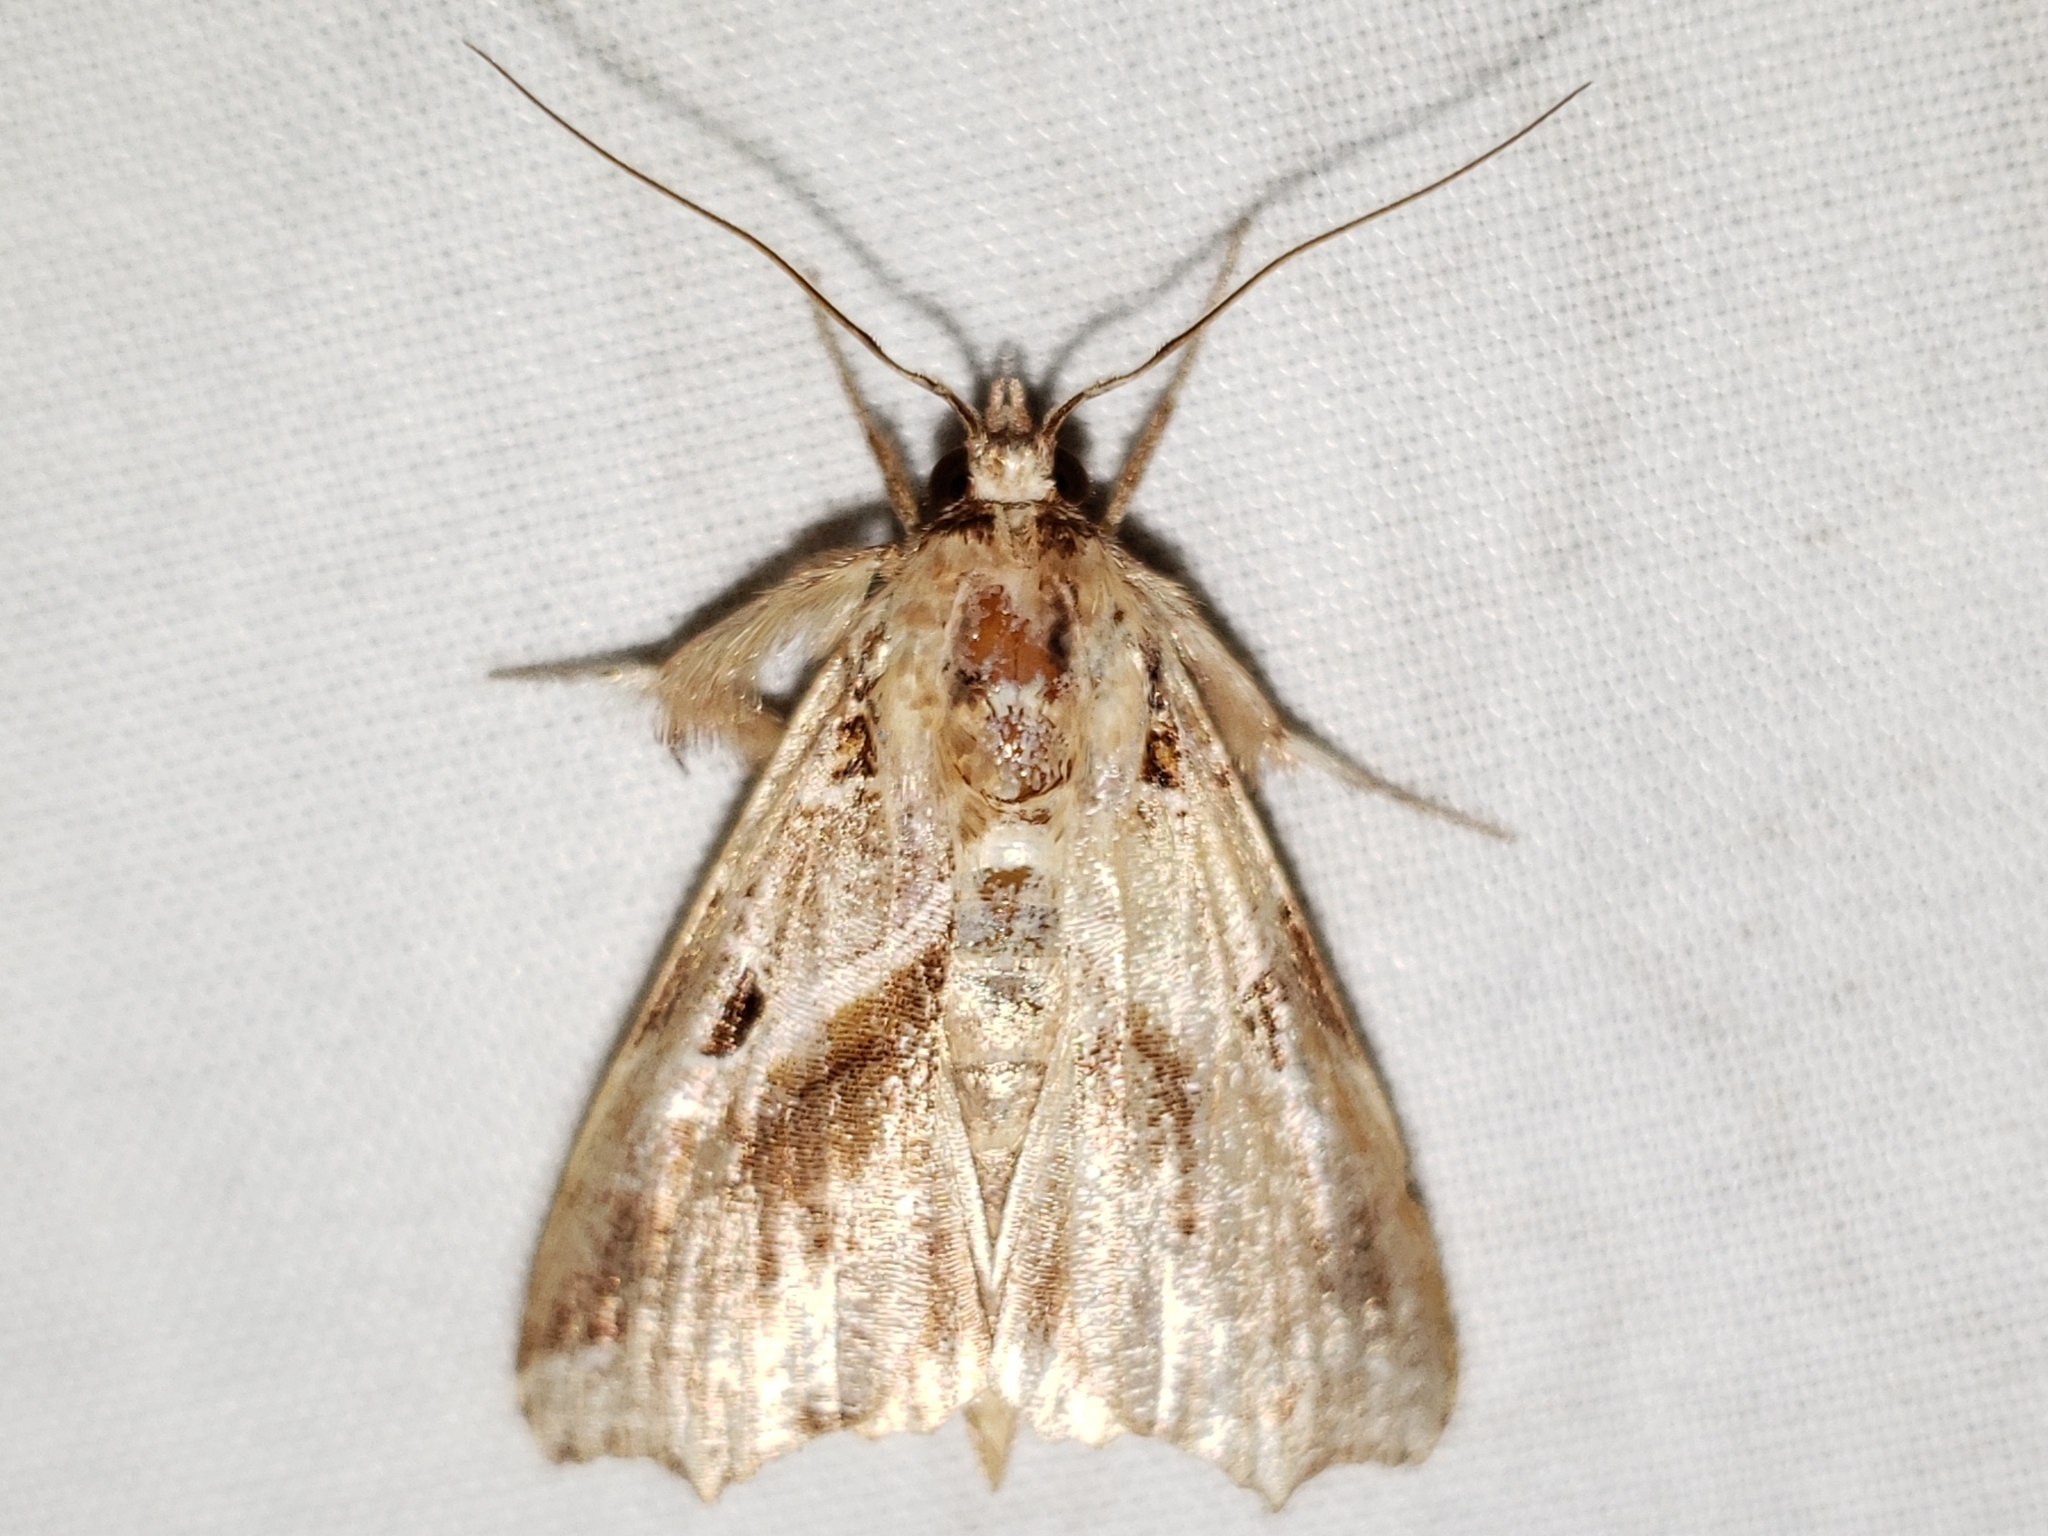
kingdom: Animalia
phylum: Arthropoda
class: Insecta
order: Lepidoptera
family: Noctuidae
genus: Callopistria
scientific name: Callopistria floridensis
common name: Florida fern moth
